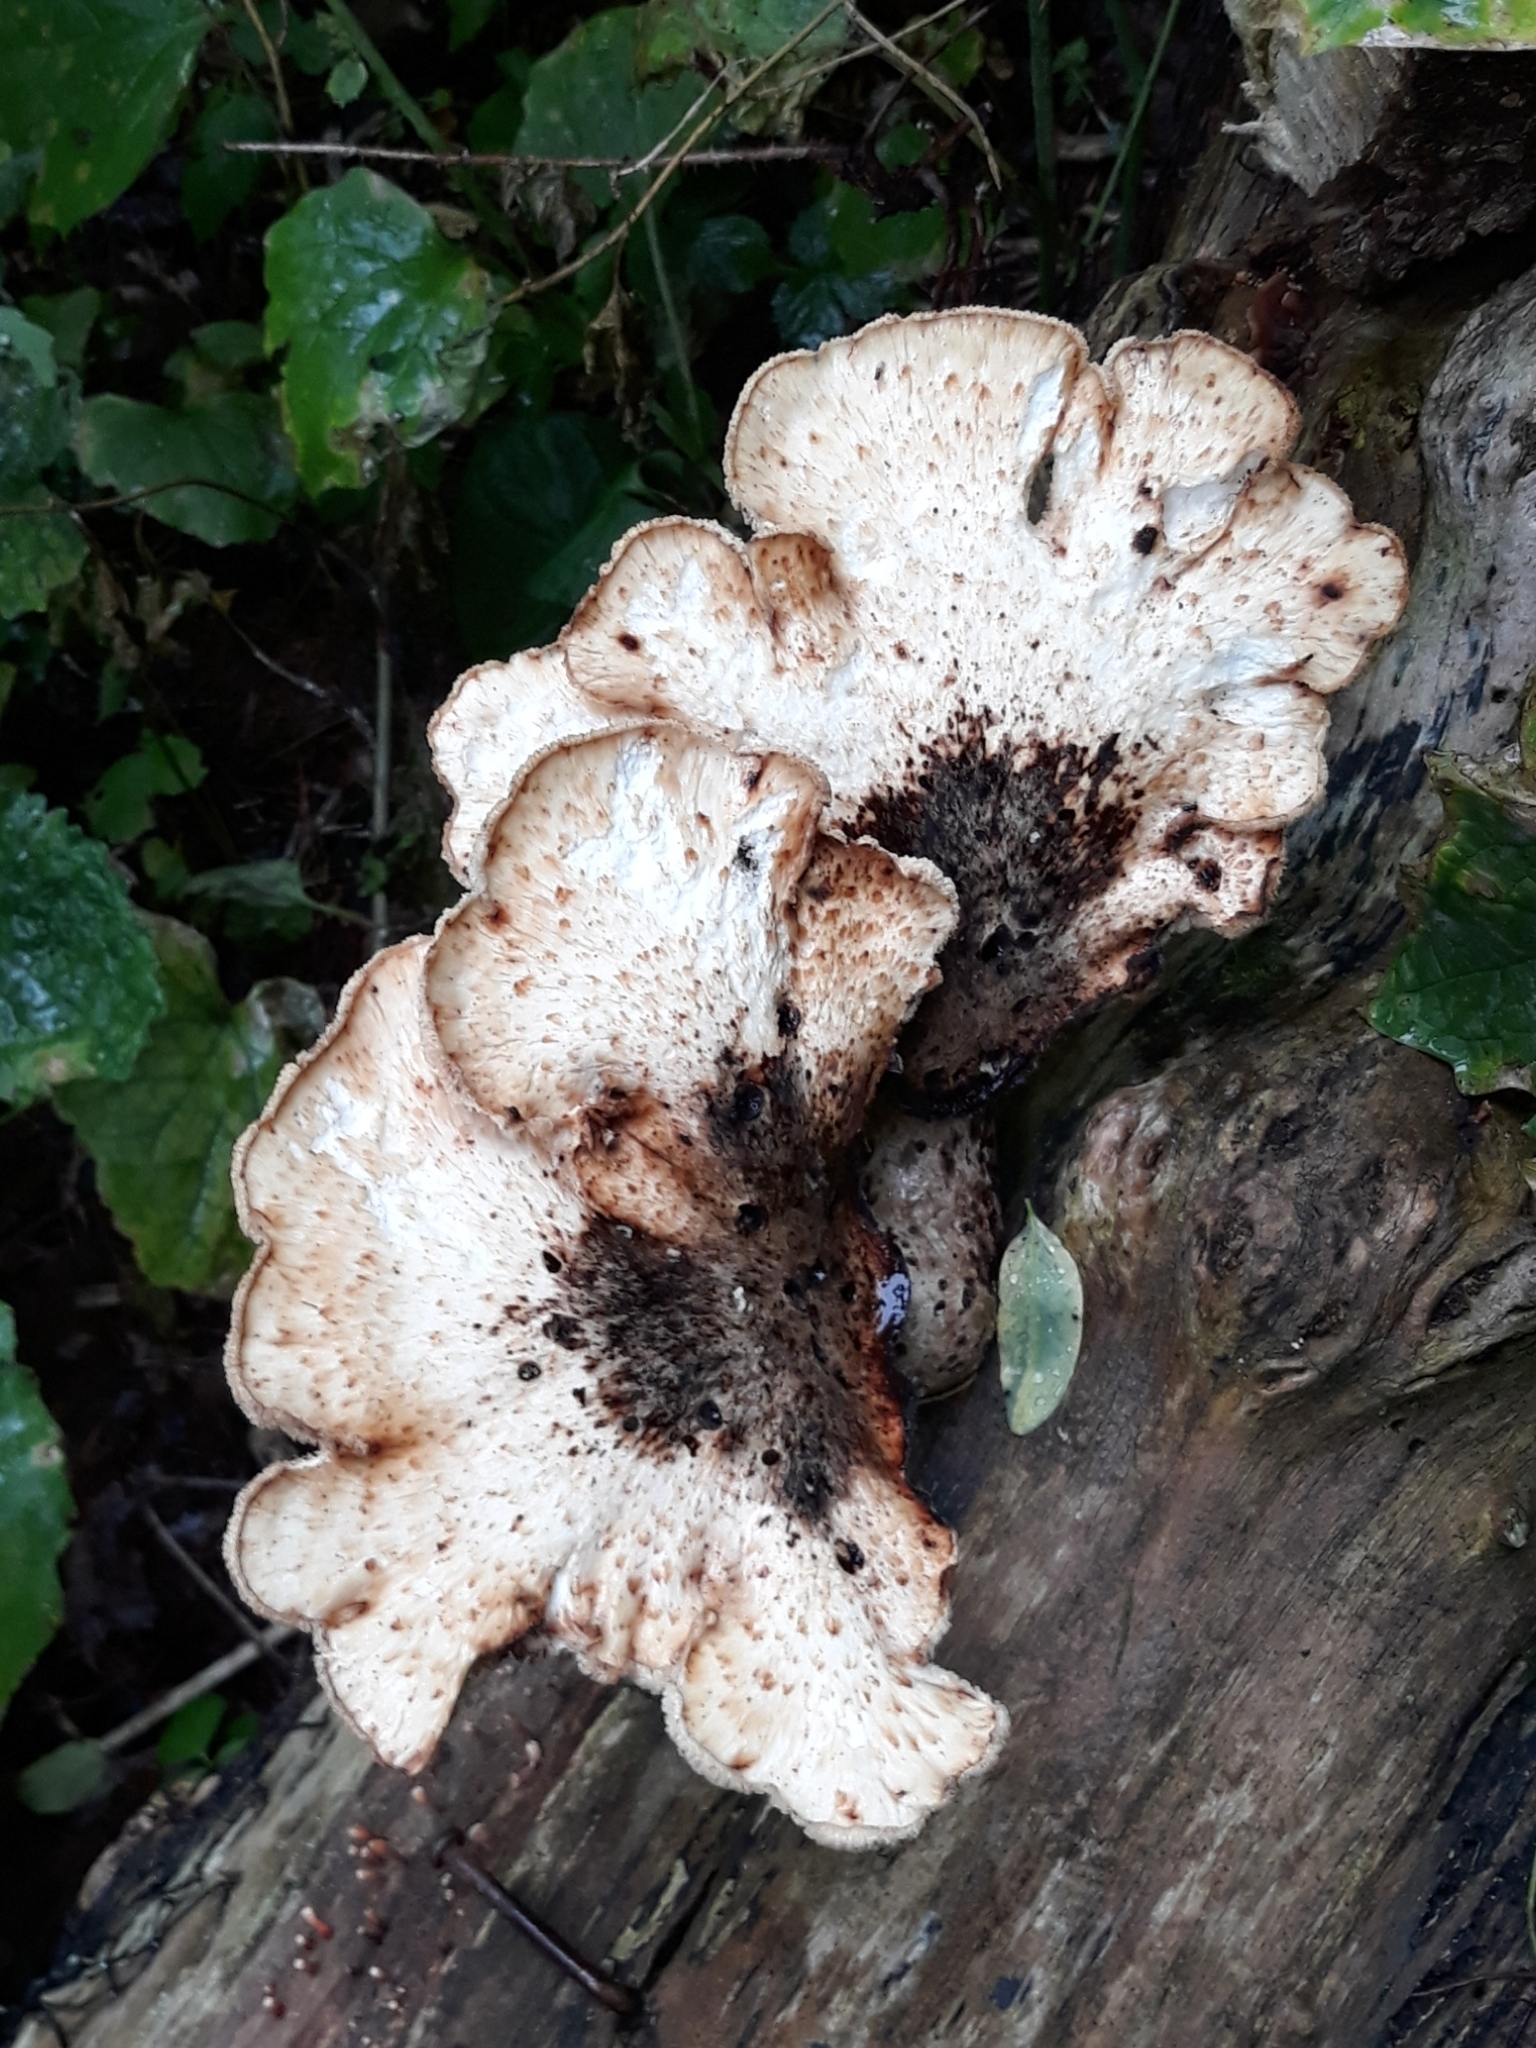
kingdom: Fungi
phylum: Basidiomycota
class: Agaricomycetes
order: Polyporales
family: Polyporaceae
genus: Cerioporus
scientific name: Cerioporus squamosus
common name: Dryad's saddle
